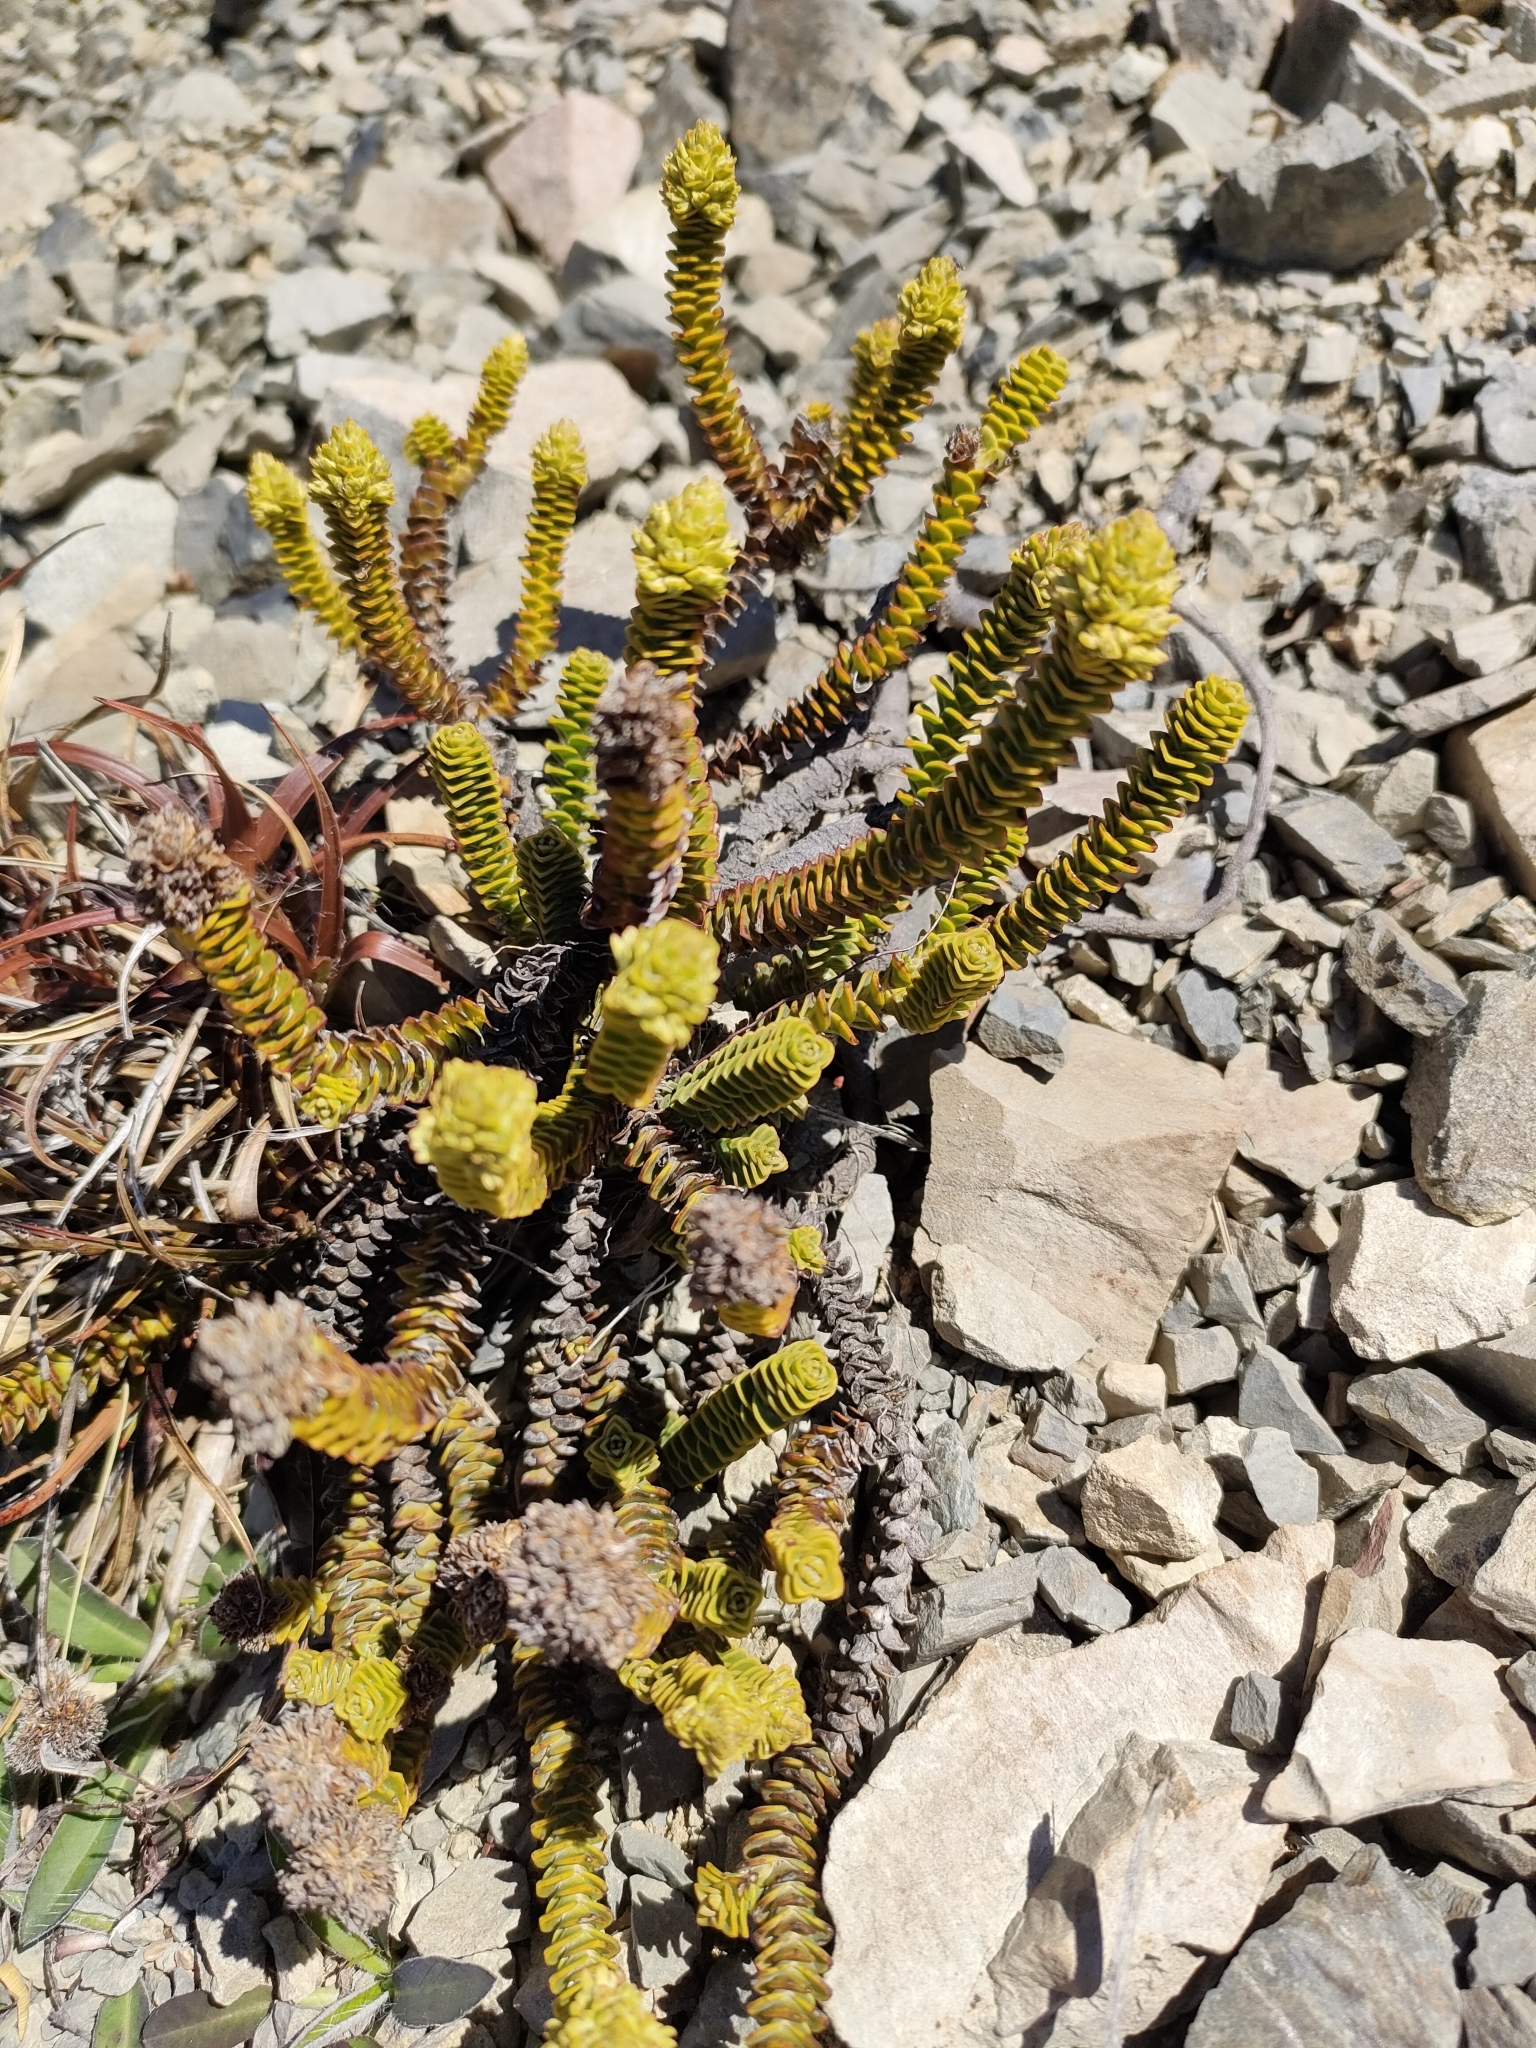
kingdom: Plantae
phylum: Tracheophyta
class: Magnoliopsida
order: Lamiales
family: Plantaginaceae
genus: Veronica
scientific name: Veronica epacridea
